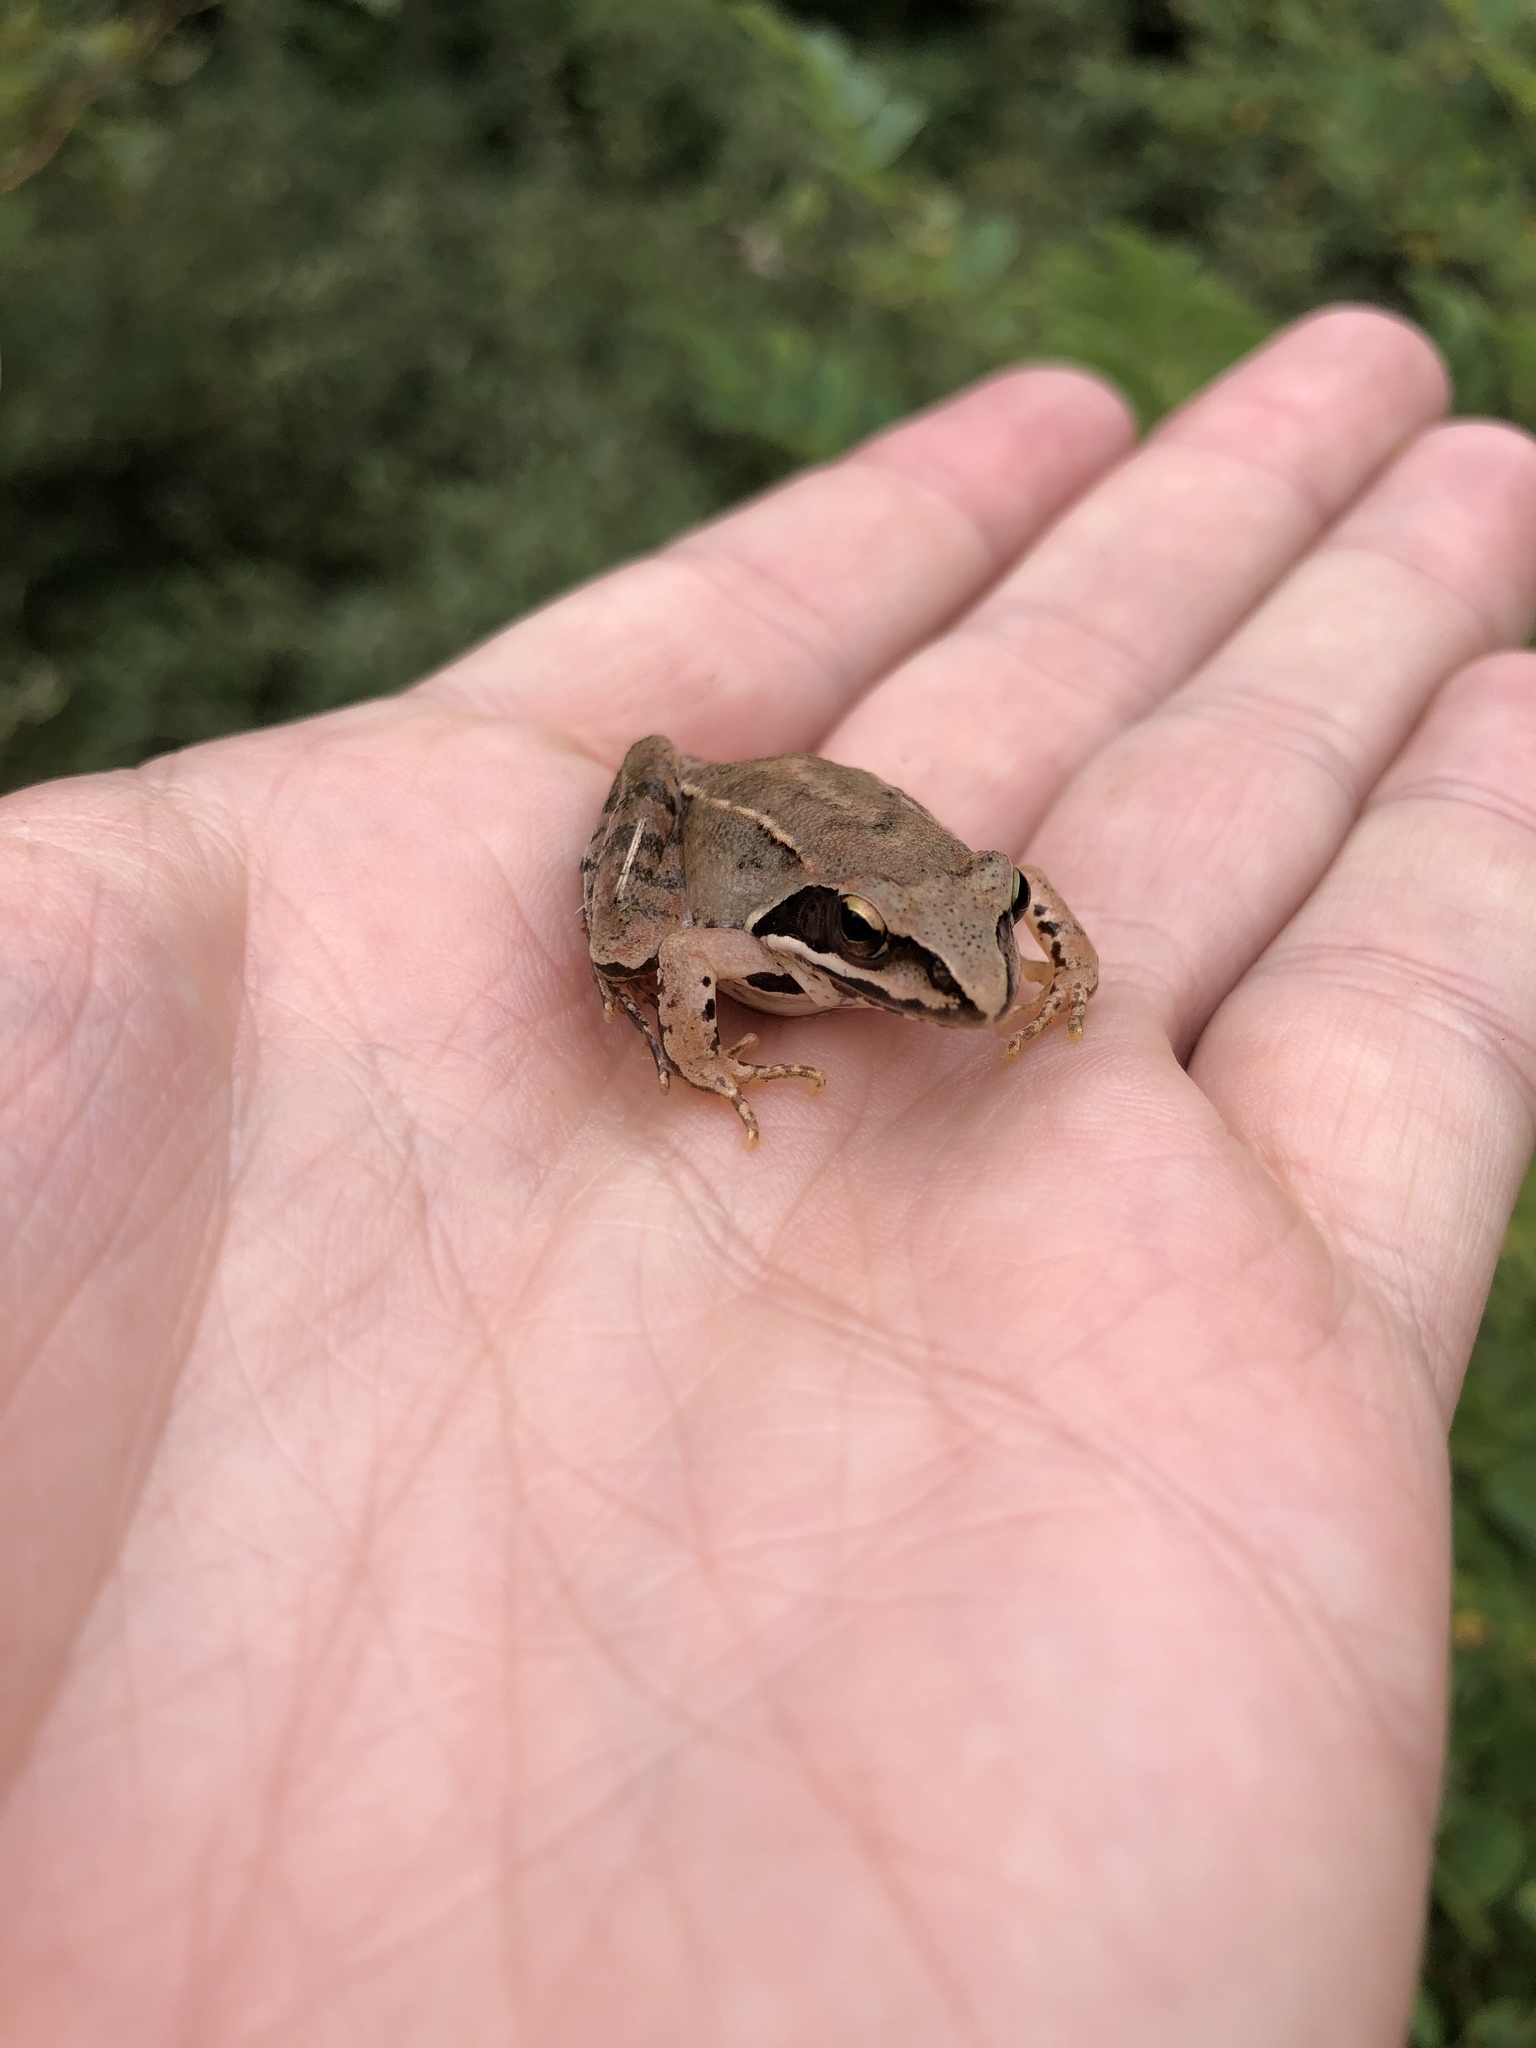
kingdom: Animalia
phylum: Chordata
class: Amphibia
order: Anura
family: Ranidae
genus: Rana
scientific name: Rana dalmatina
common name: Agile frog
